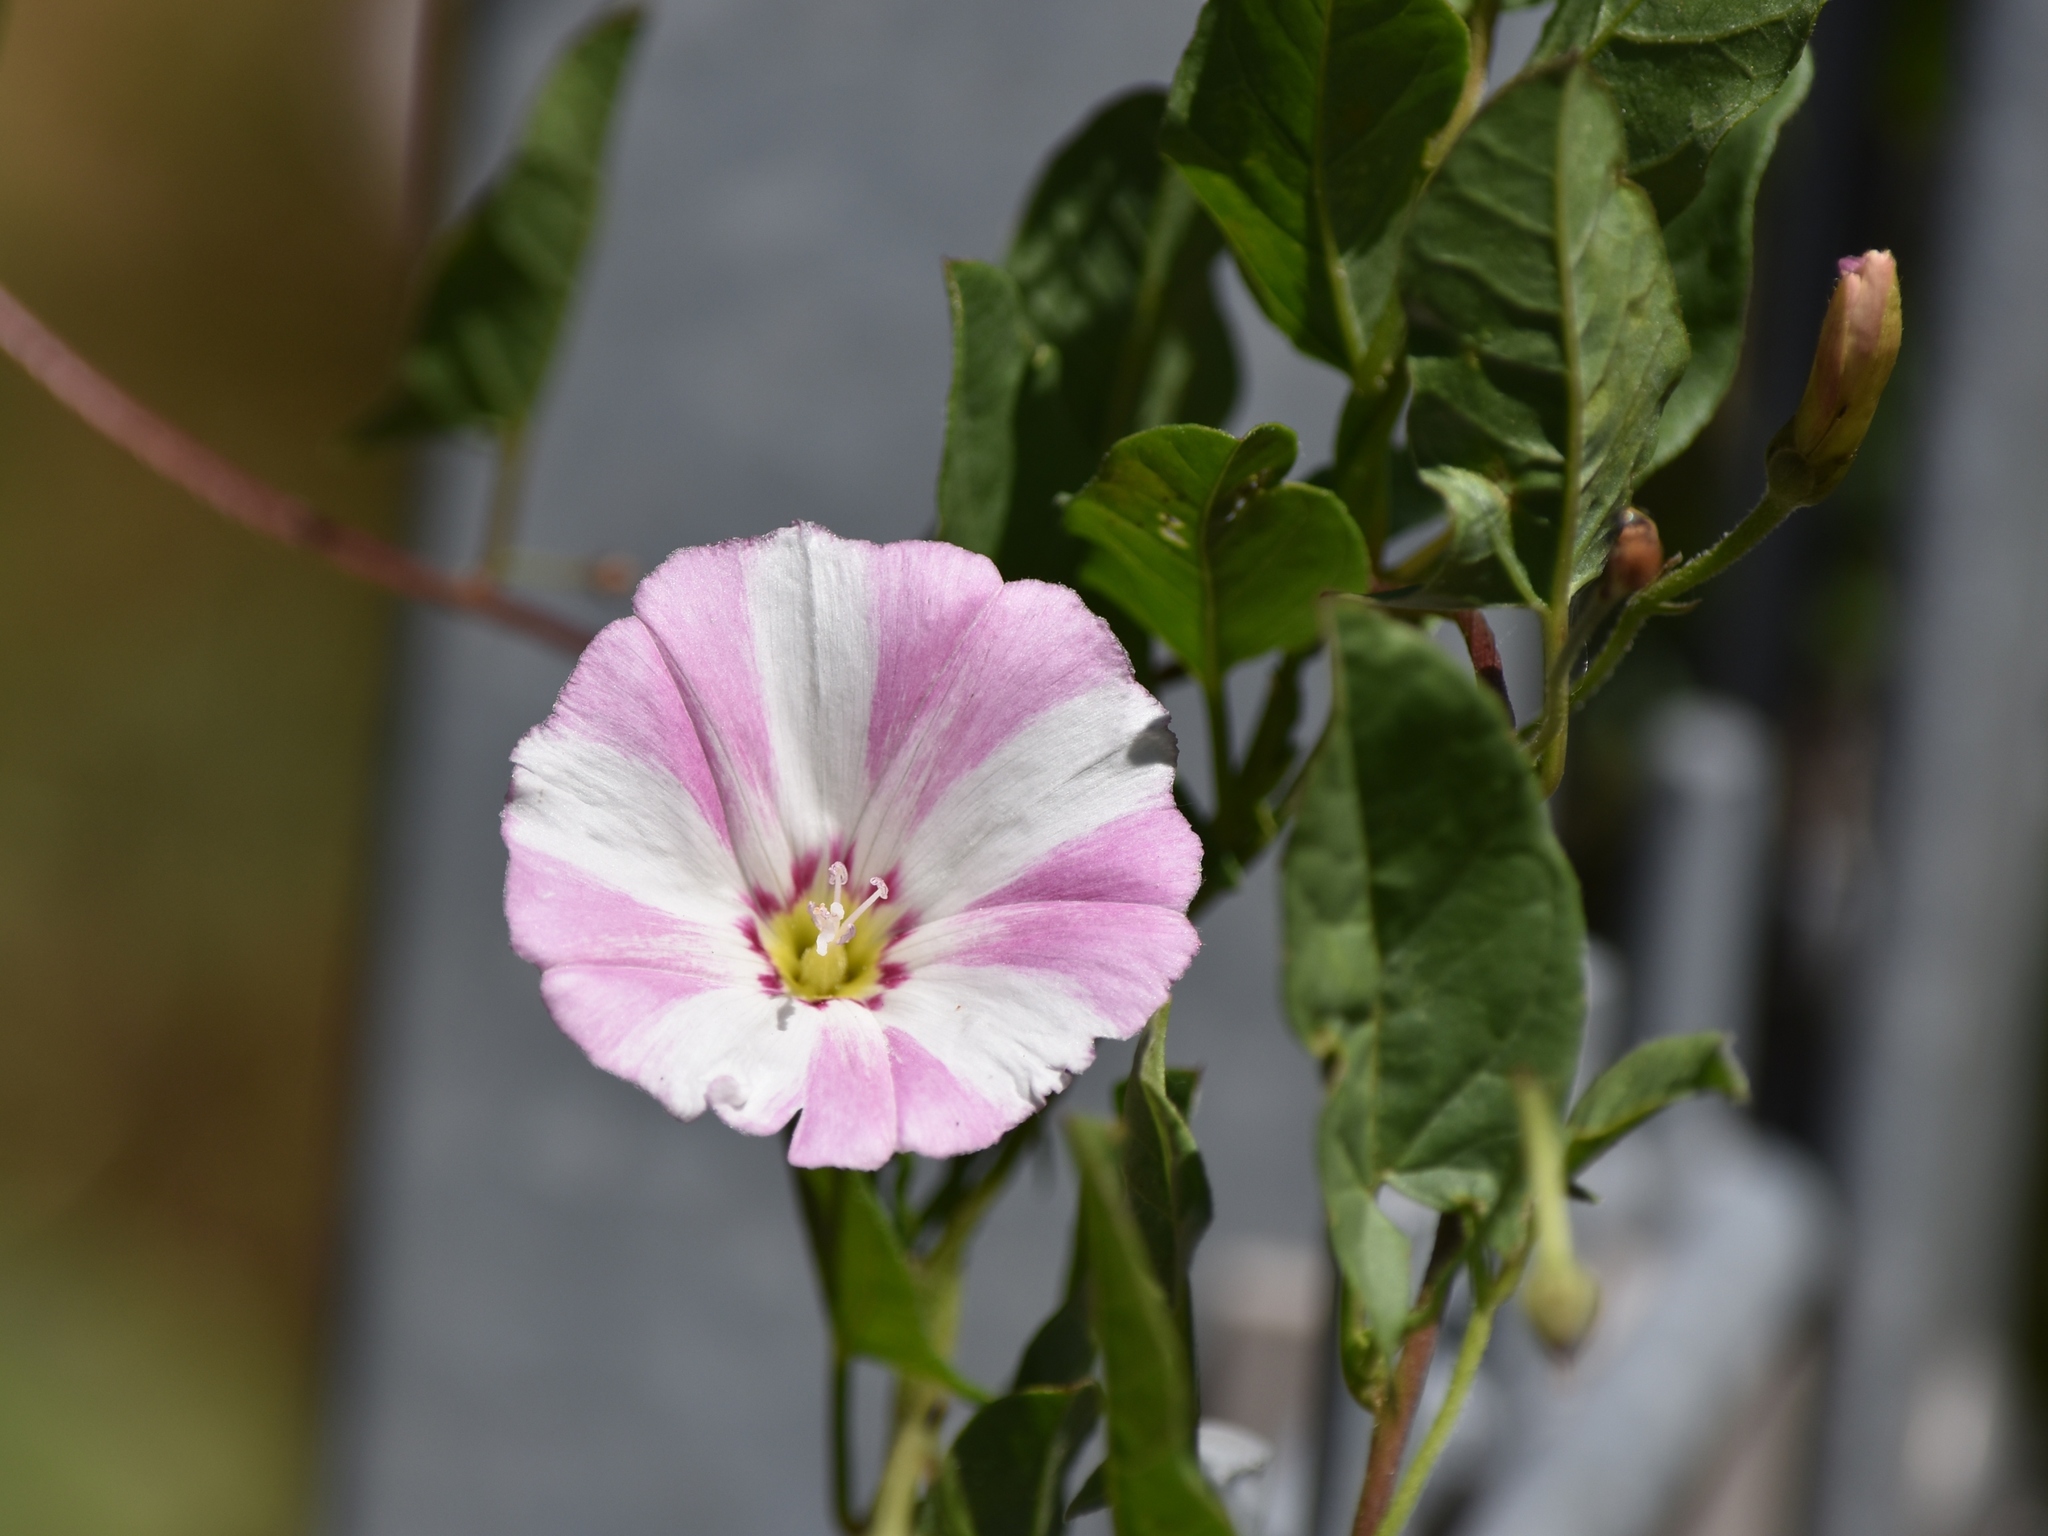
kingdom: Plantae
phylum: Tracheophyta
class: Magnoliopsida
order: Solanales
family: Convolvulaceae
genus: Convolvulus
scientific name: Convolvulus arvensis
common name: Field bindweed
